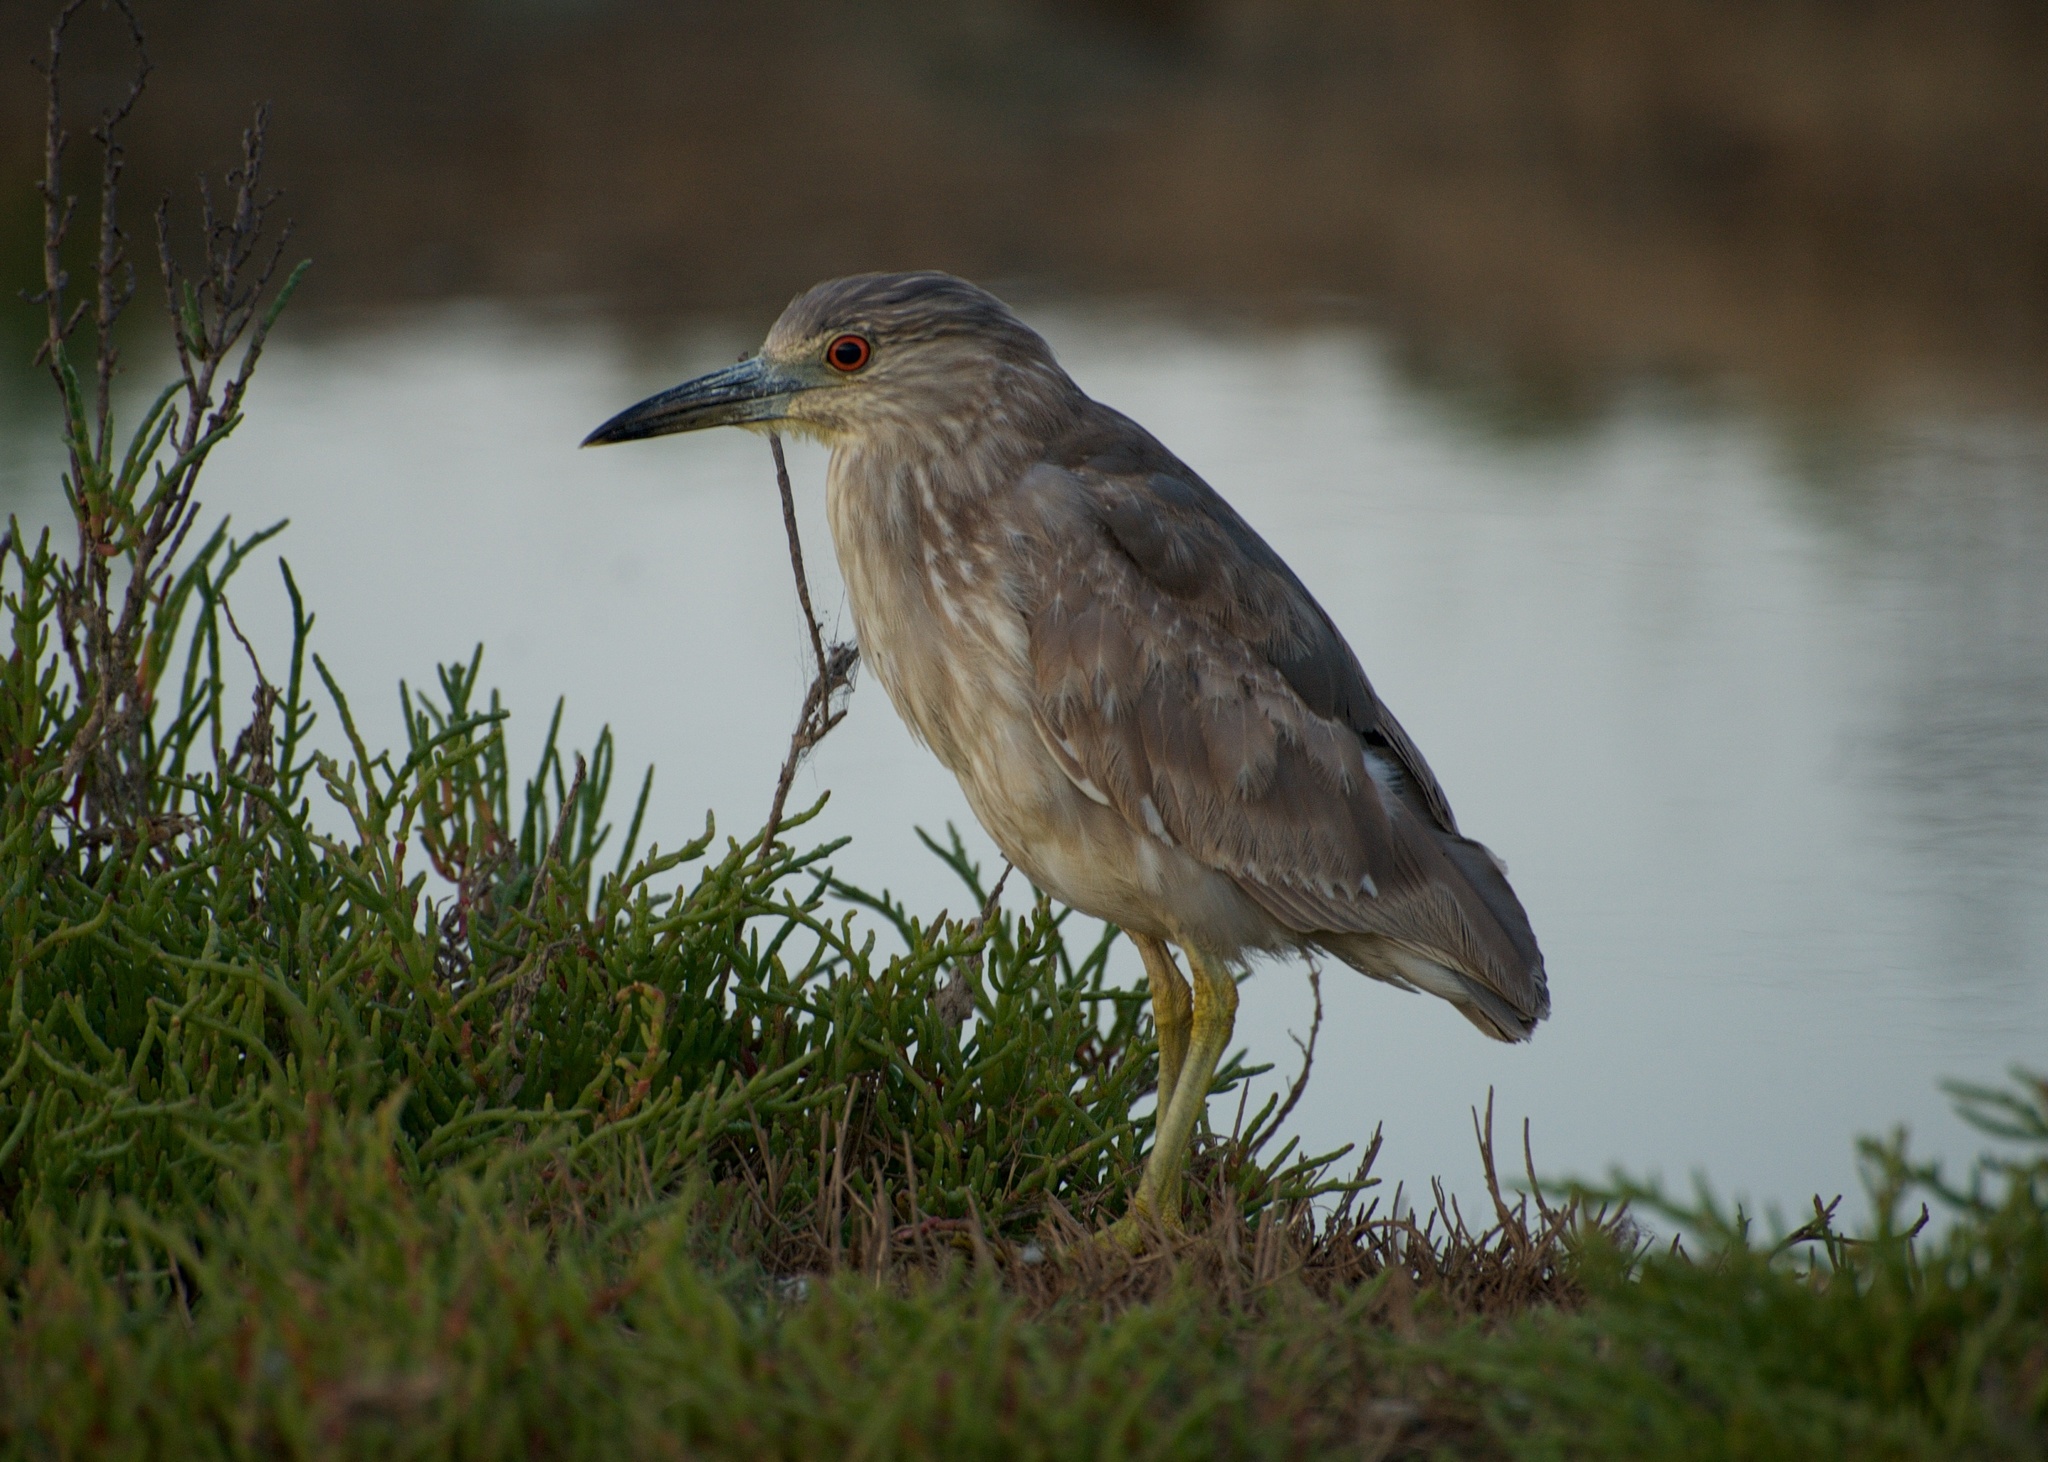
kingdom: Animalia
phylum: Chordata
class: Aves
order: Pelecaniformes
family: Ardeidae
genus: Nycticorax
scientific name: Nycticorax nycticorax
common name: Black-crowned night heron
